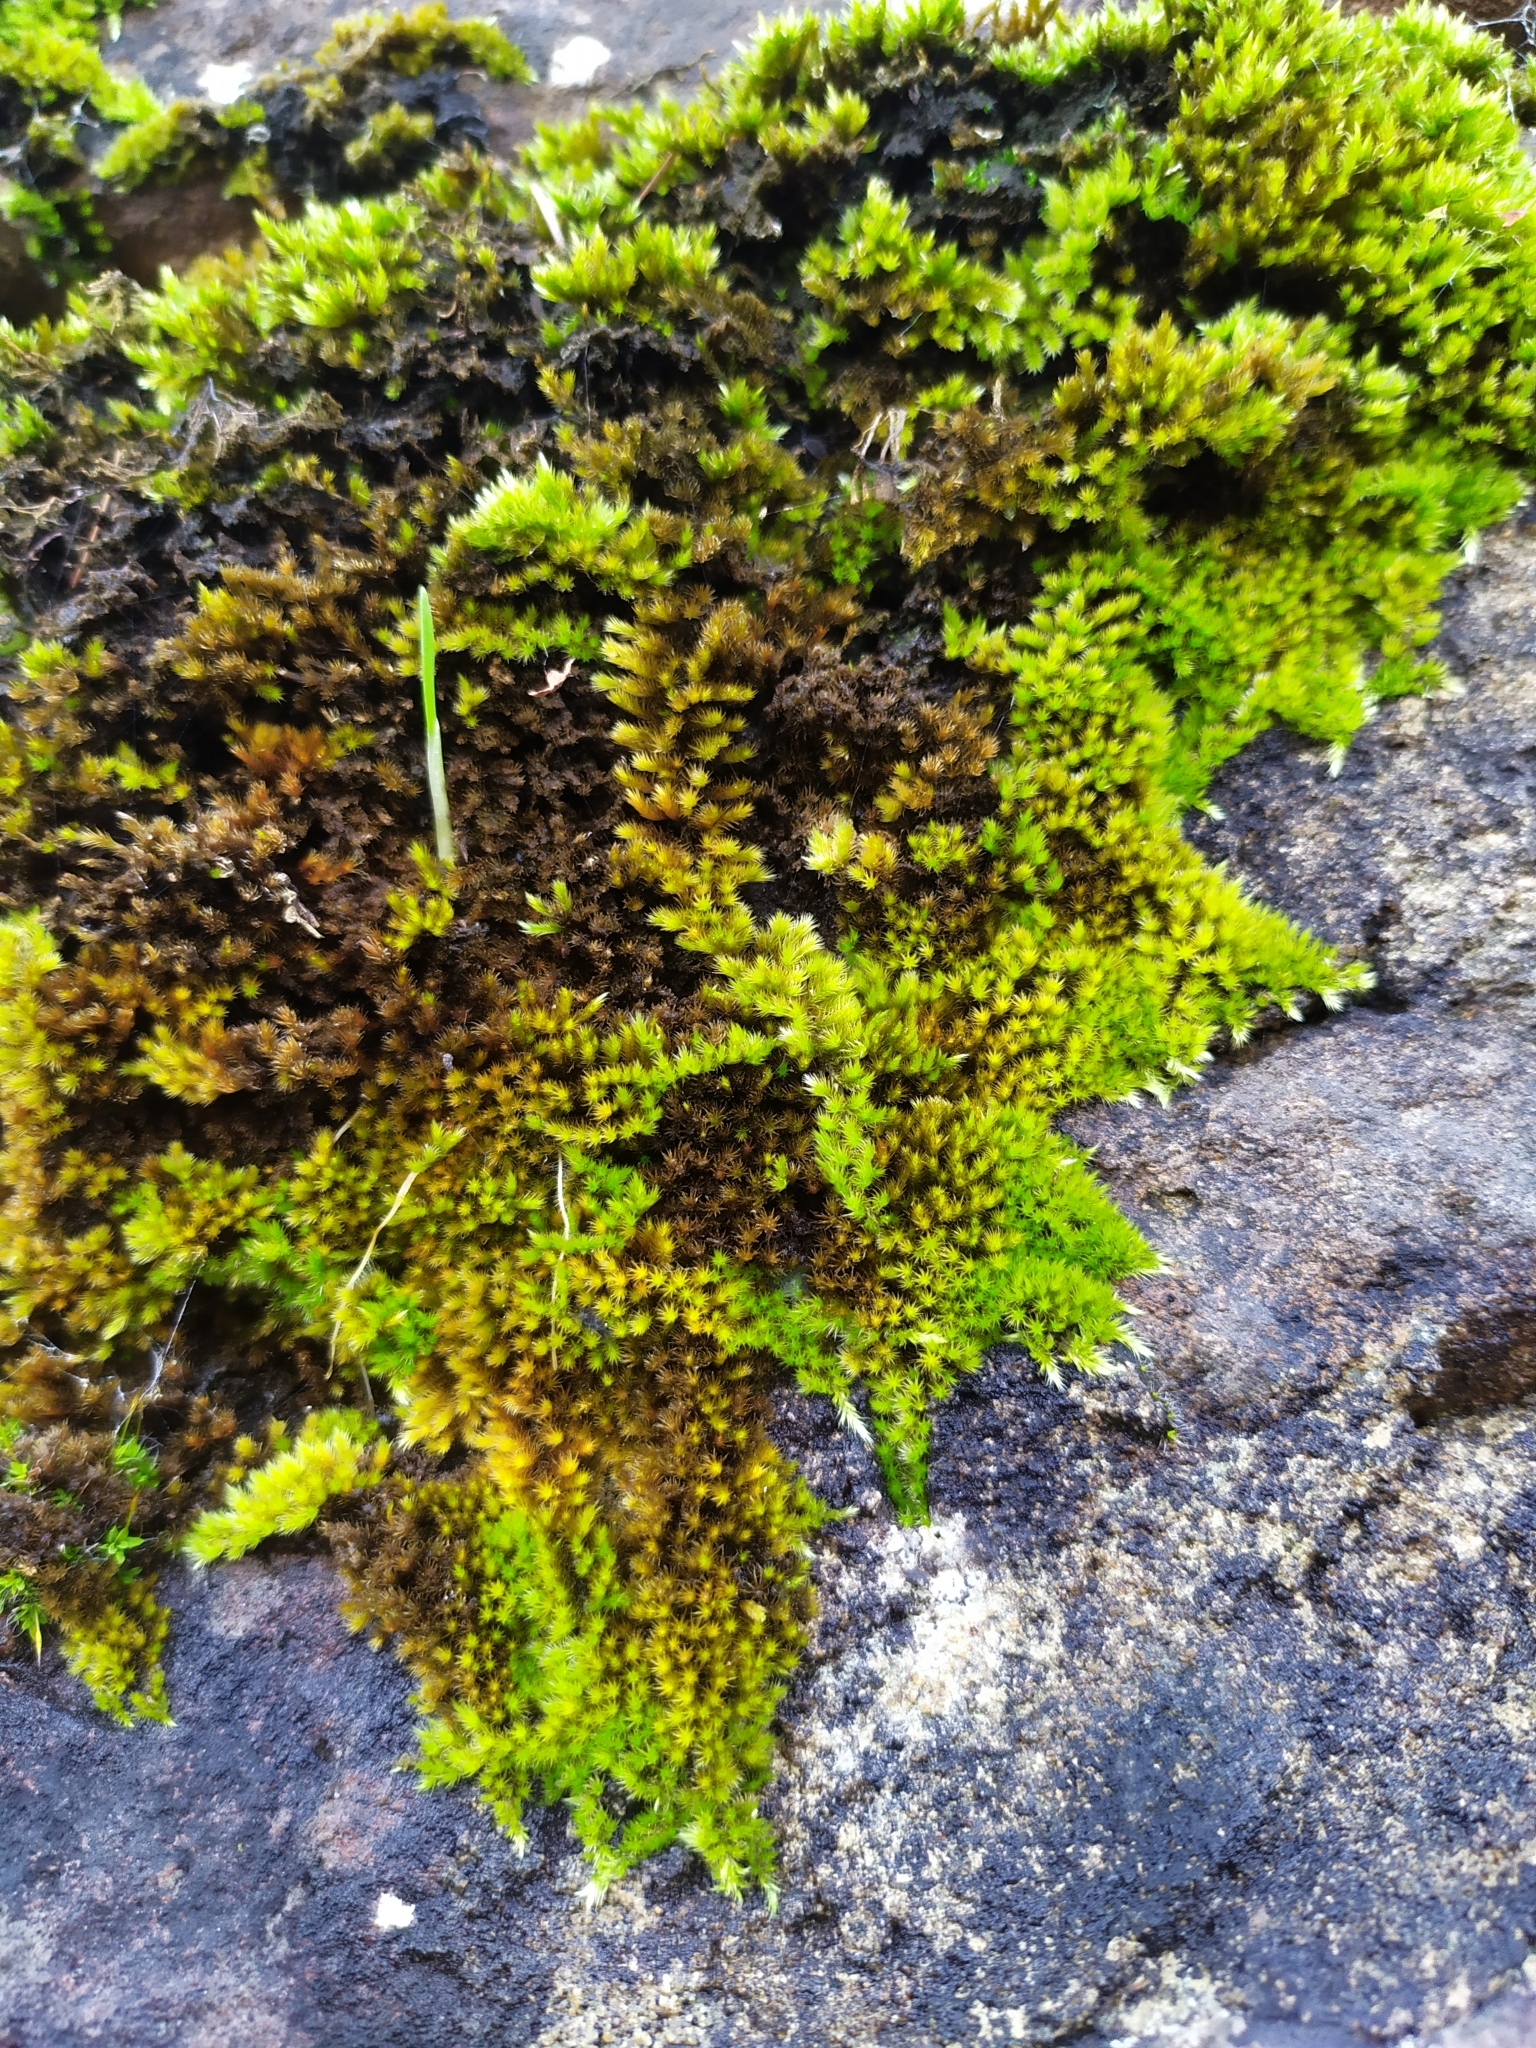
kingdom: Plantae
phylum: Bryophyta
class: Bryopsida
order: Hypnales
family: Brachytheciaceae
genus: Homalothecium
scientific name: Homalothecium sericeum
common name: Silky wall feather-moss
